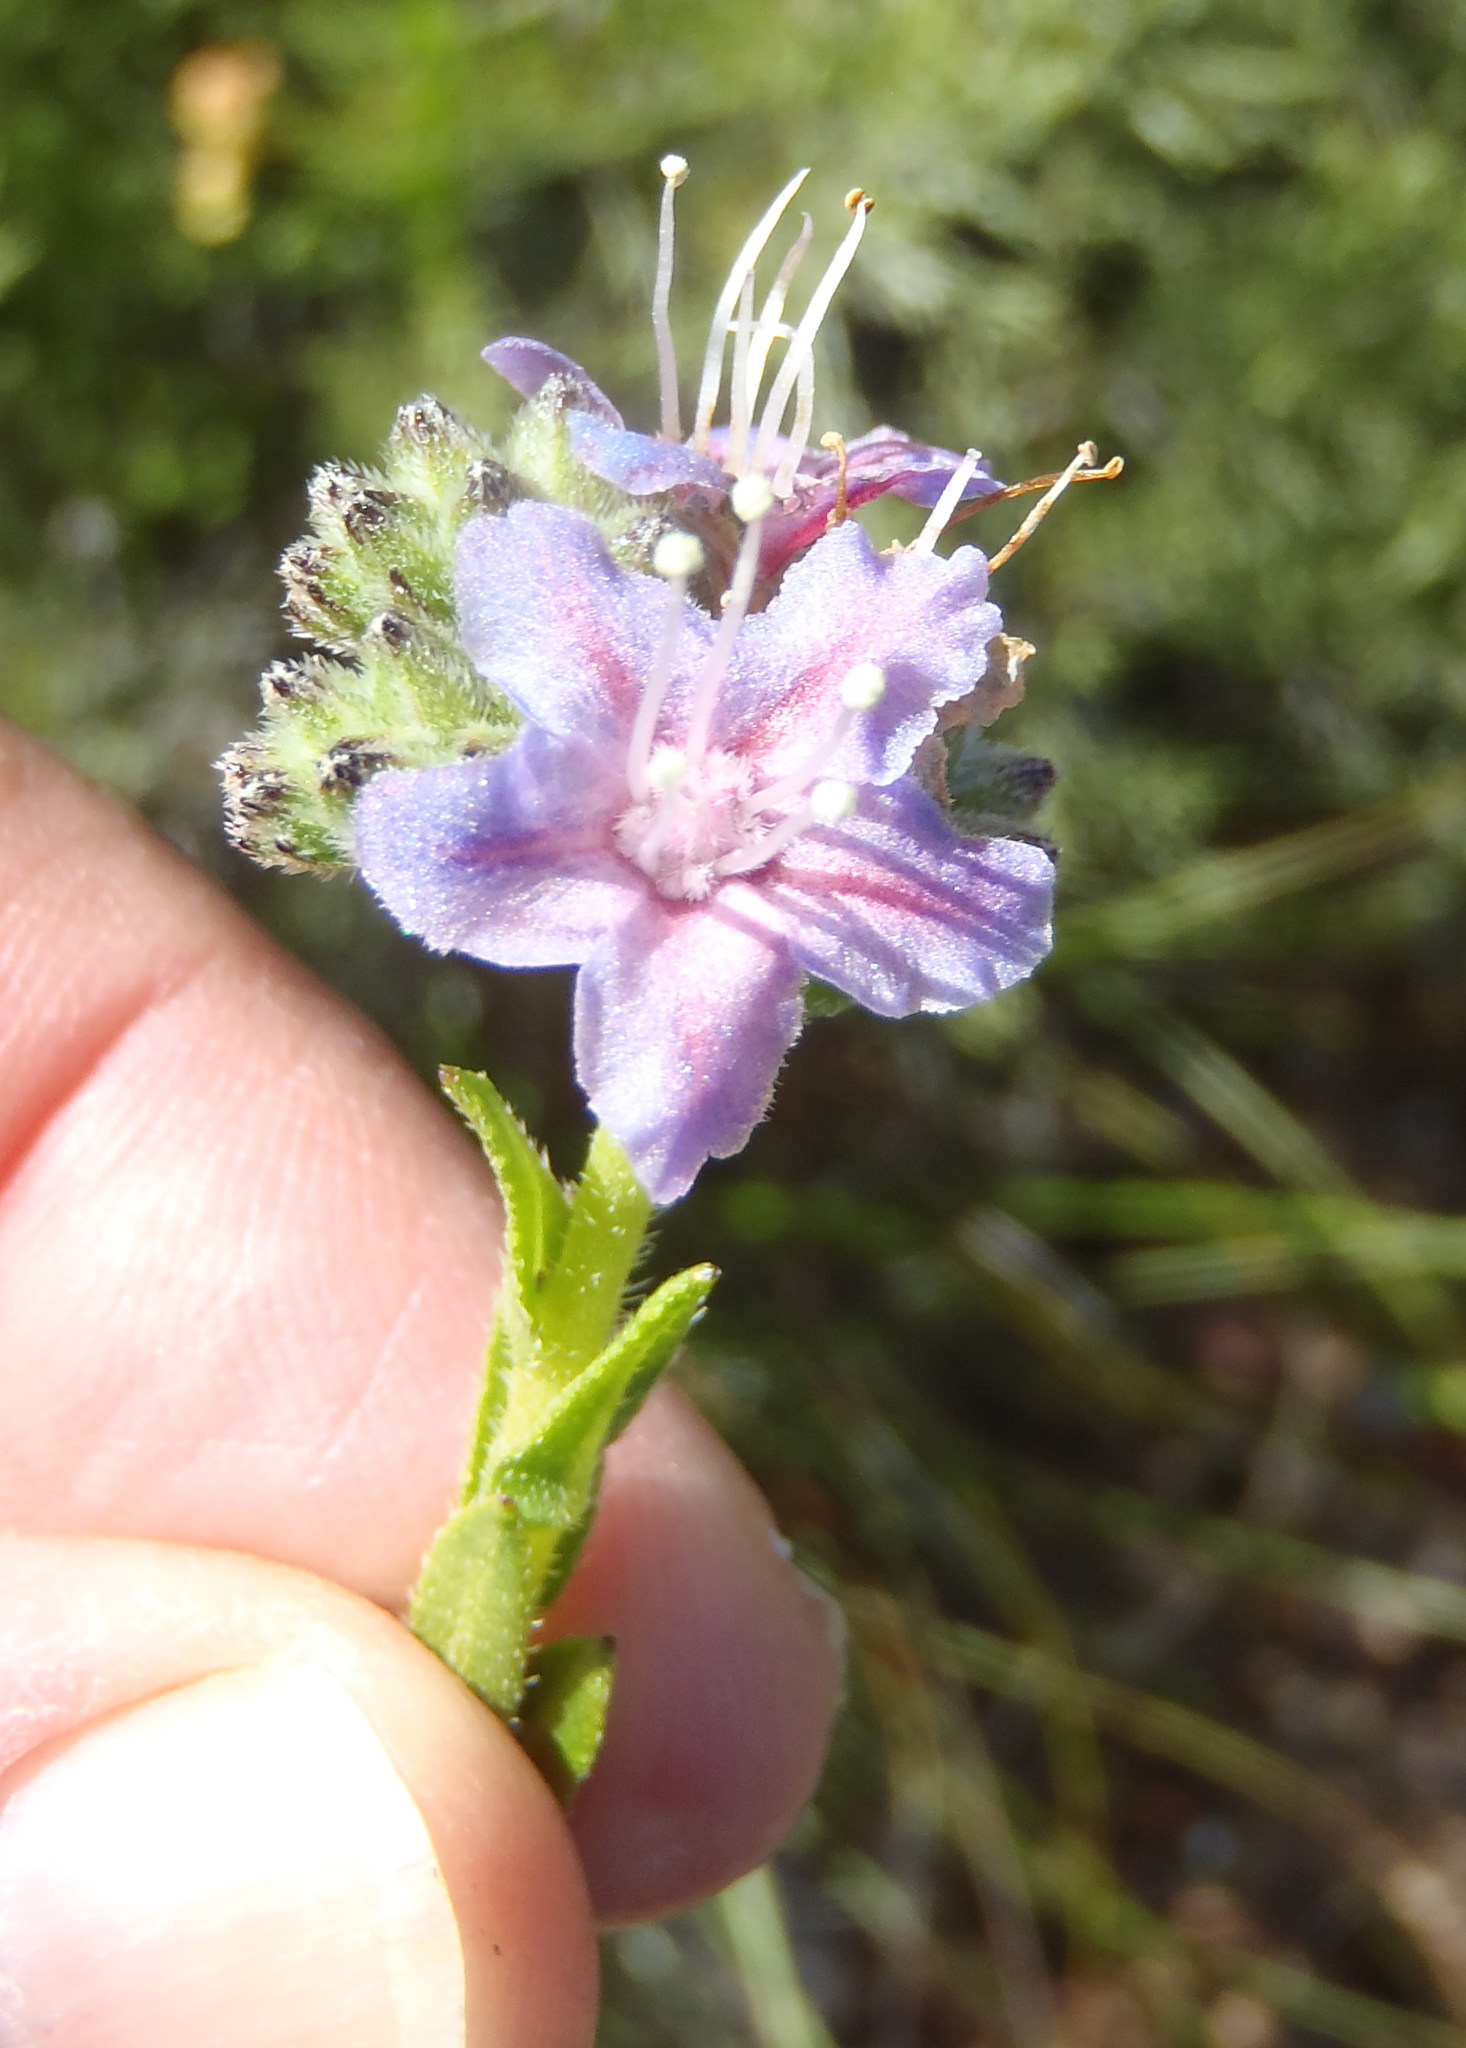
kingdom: Plantae
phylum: Tracheophyta
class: Magnoliopsida
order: Boraginales
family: Boraginaceae
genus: Lobostemon
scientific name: Lobostemon paniculatus
